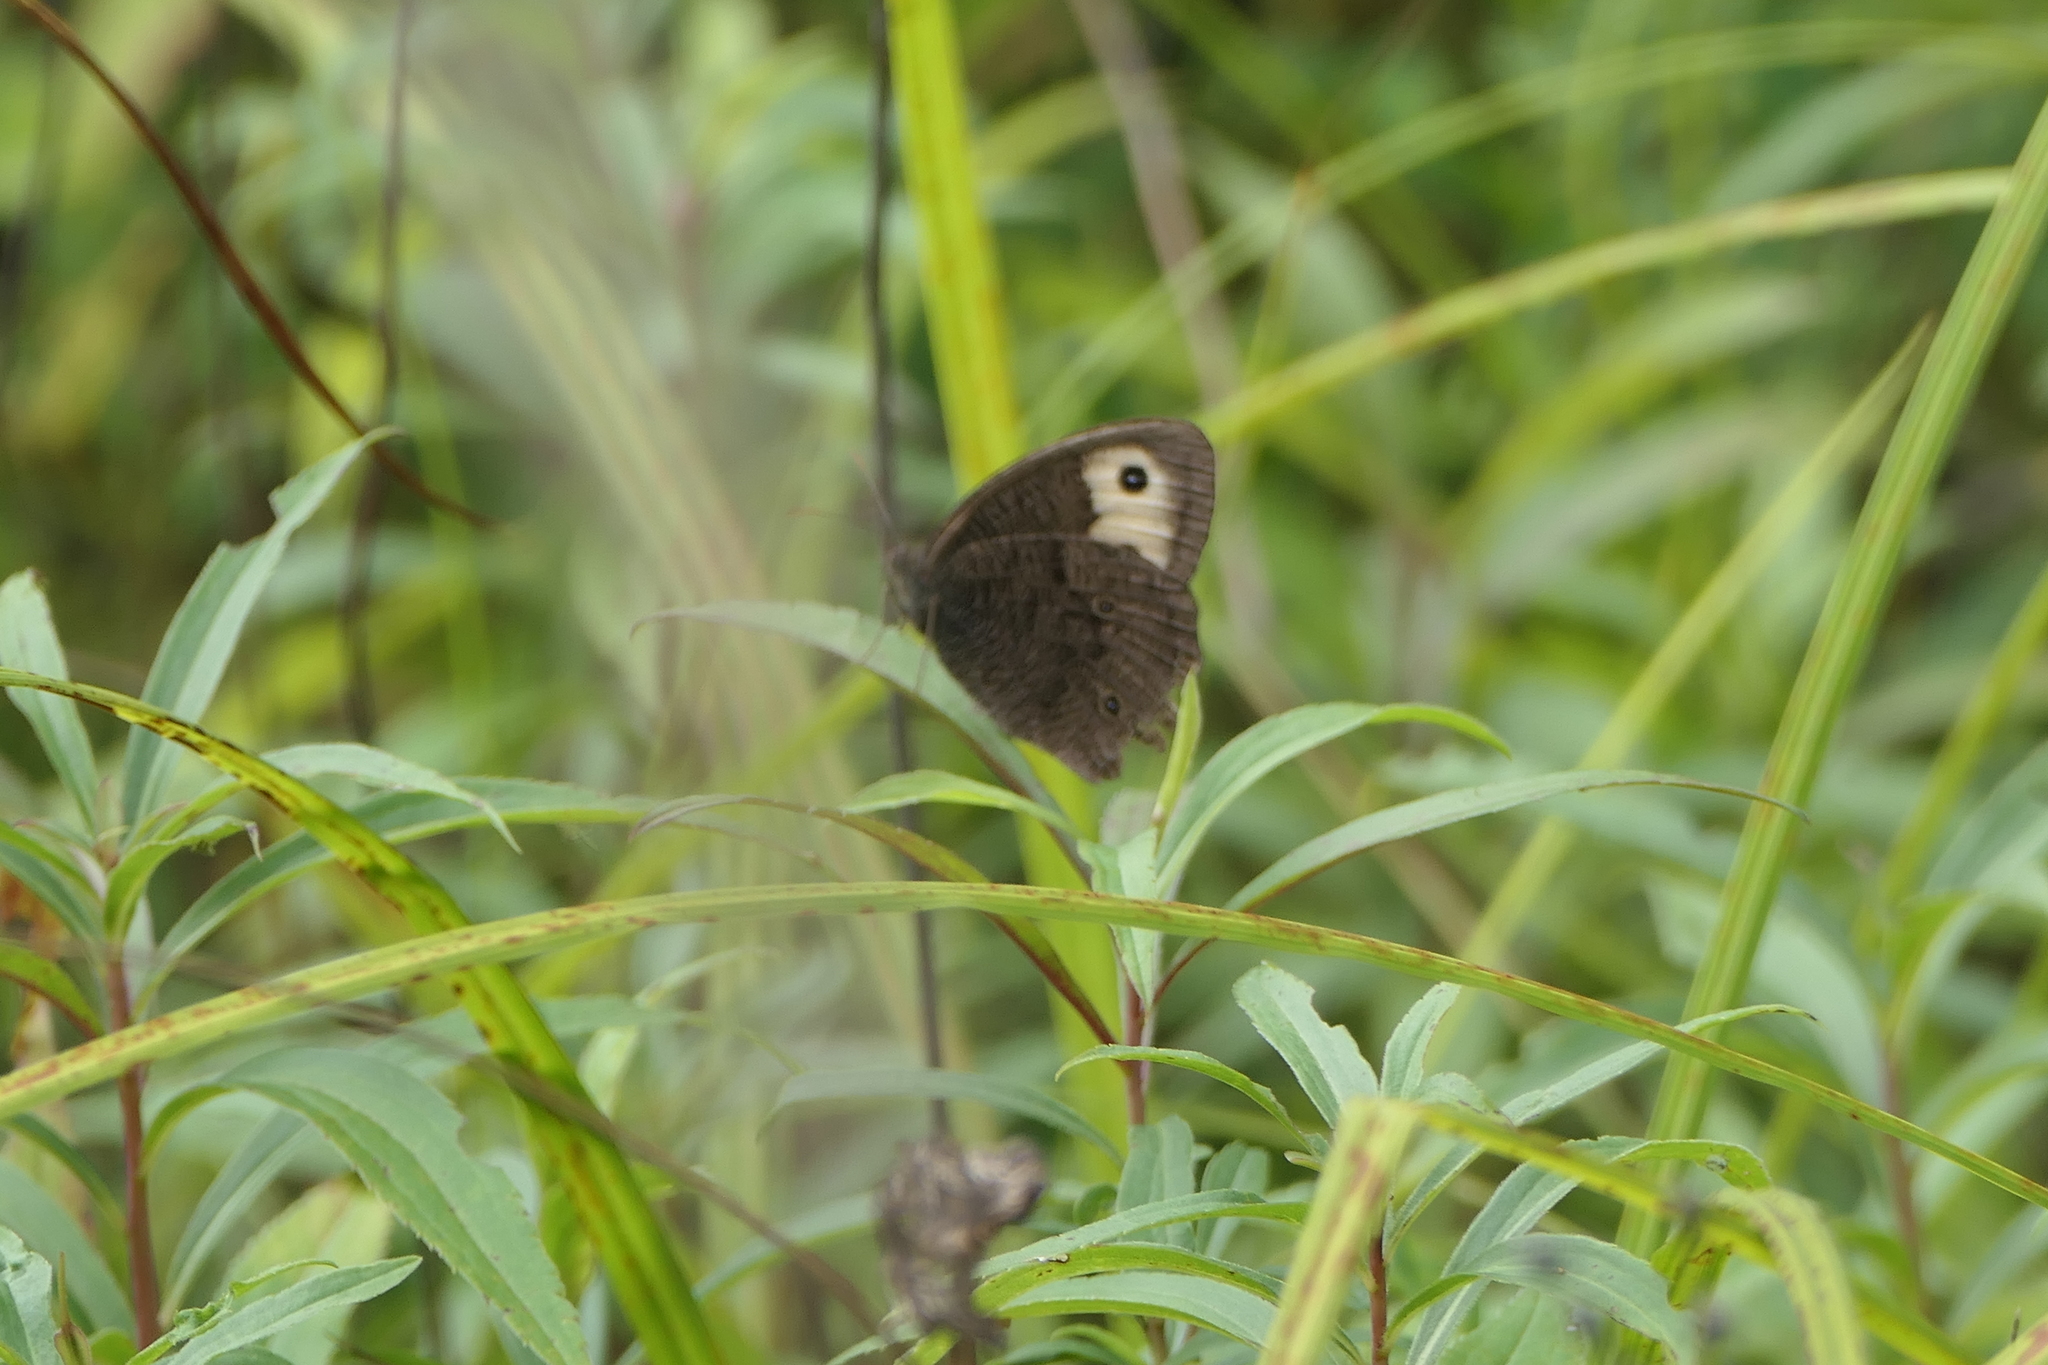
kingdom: Animalia
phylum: Arthropoda
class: Insecta
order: Lepidoptera
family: Nymphalidae
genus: Cercyonis
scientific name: Cercyonis pegala
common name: Common wood-nymph
